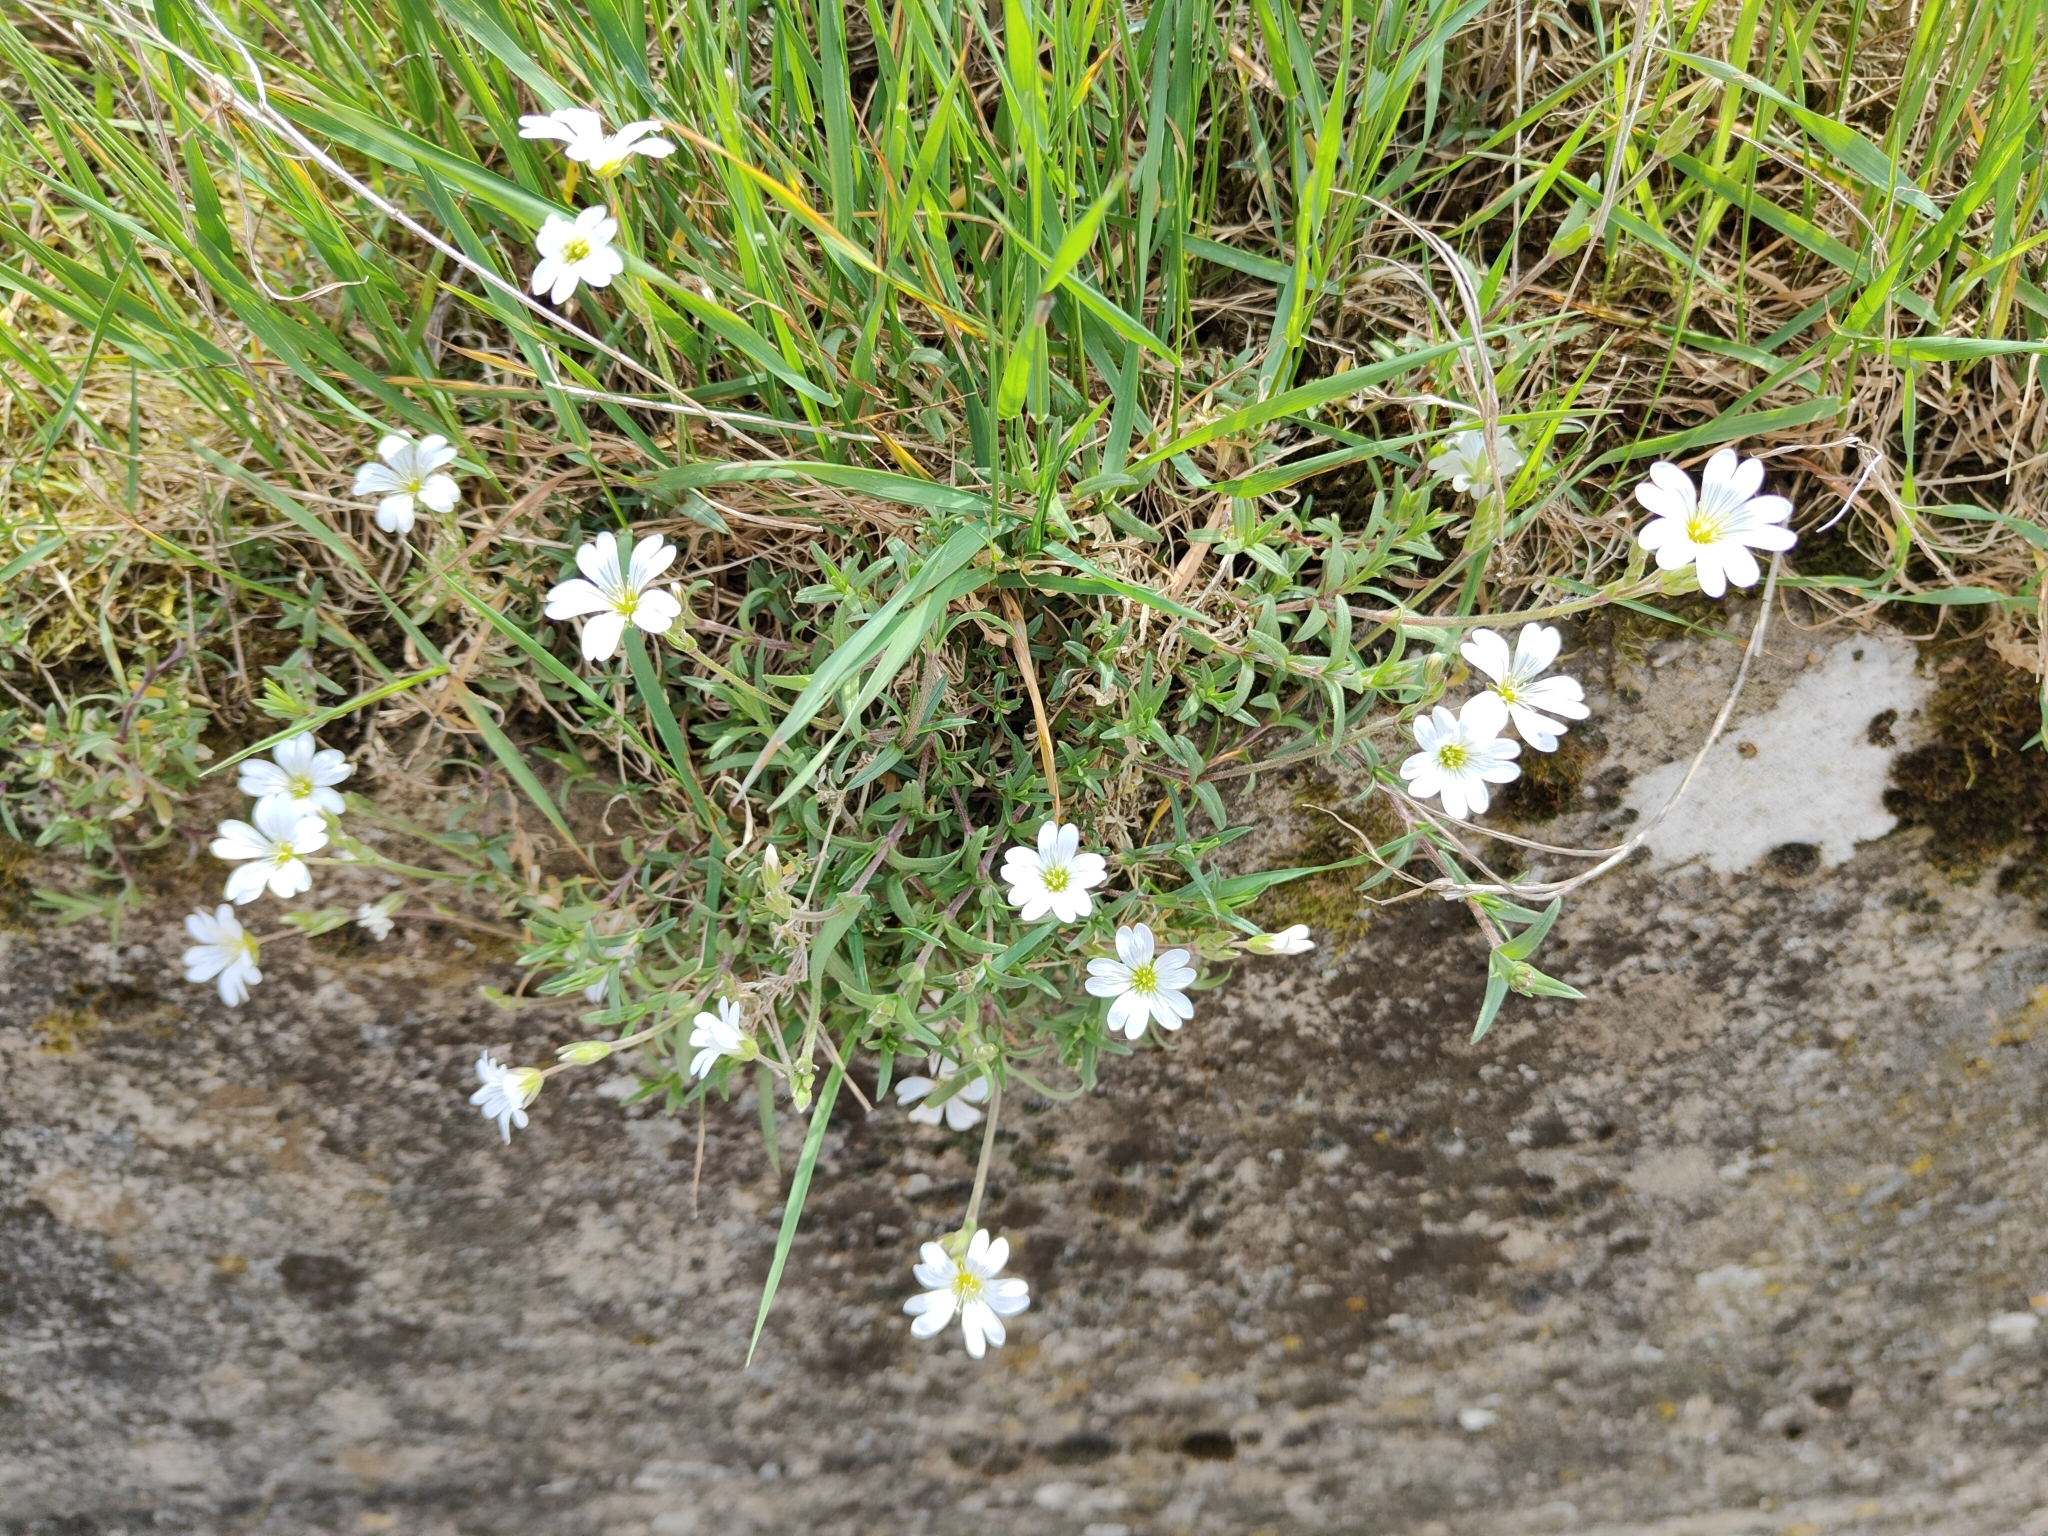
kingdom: Plantae
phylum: Tracheophyta
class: Magnoliopsida
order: Caryophyllales
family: Caryophyllaceae
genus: Stellaria
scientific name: Stellaria graminea
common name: Grass-like starwort
